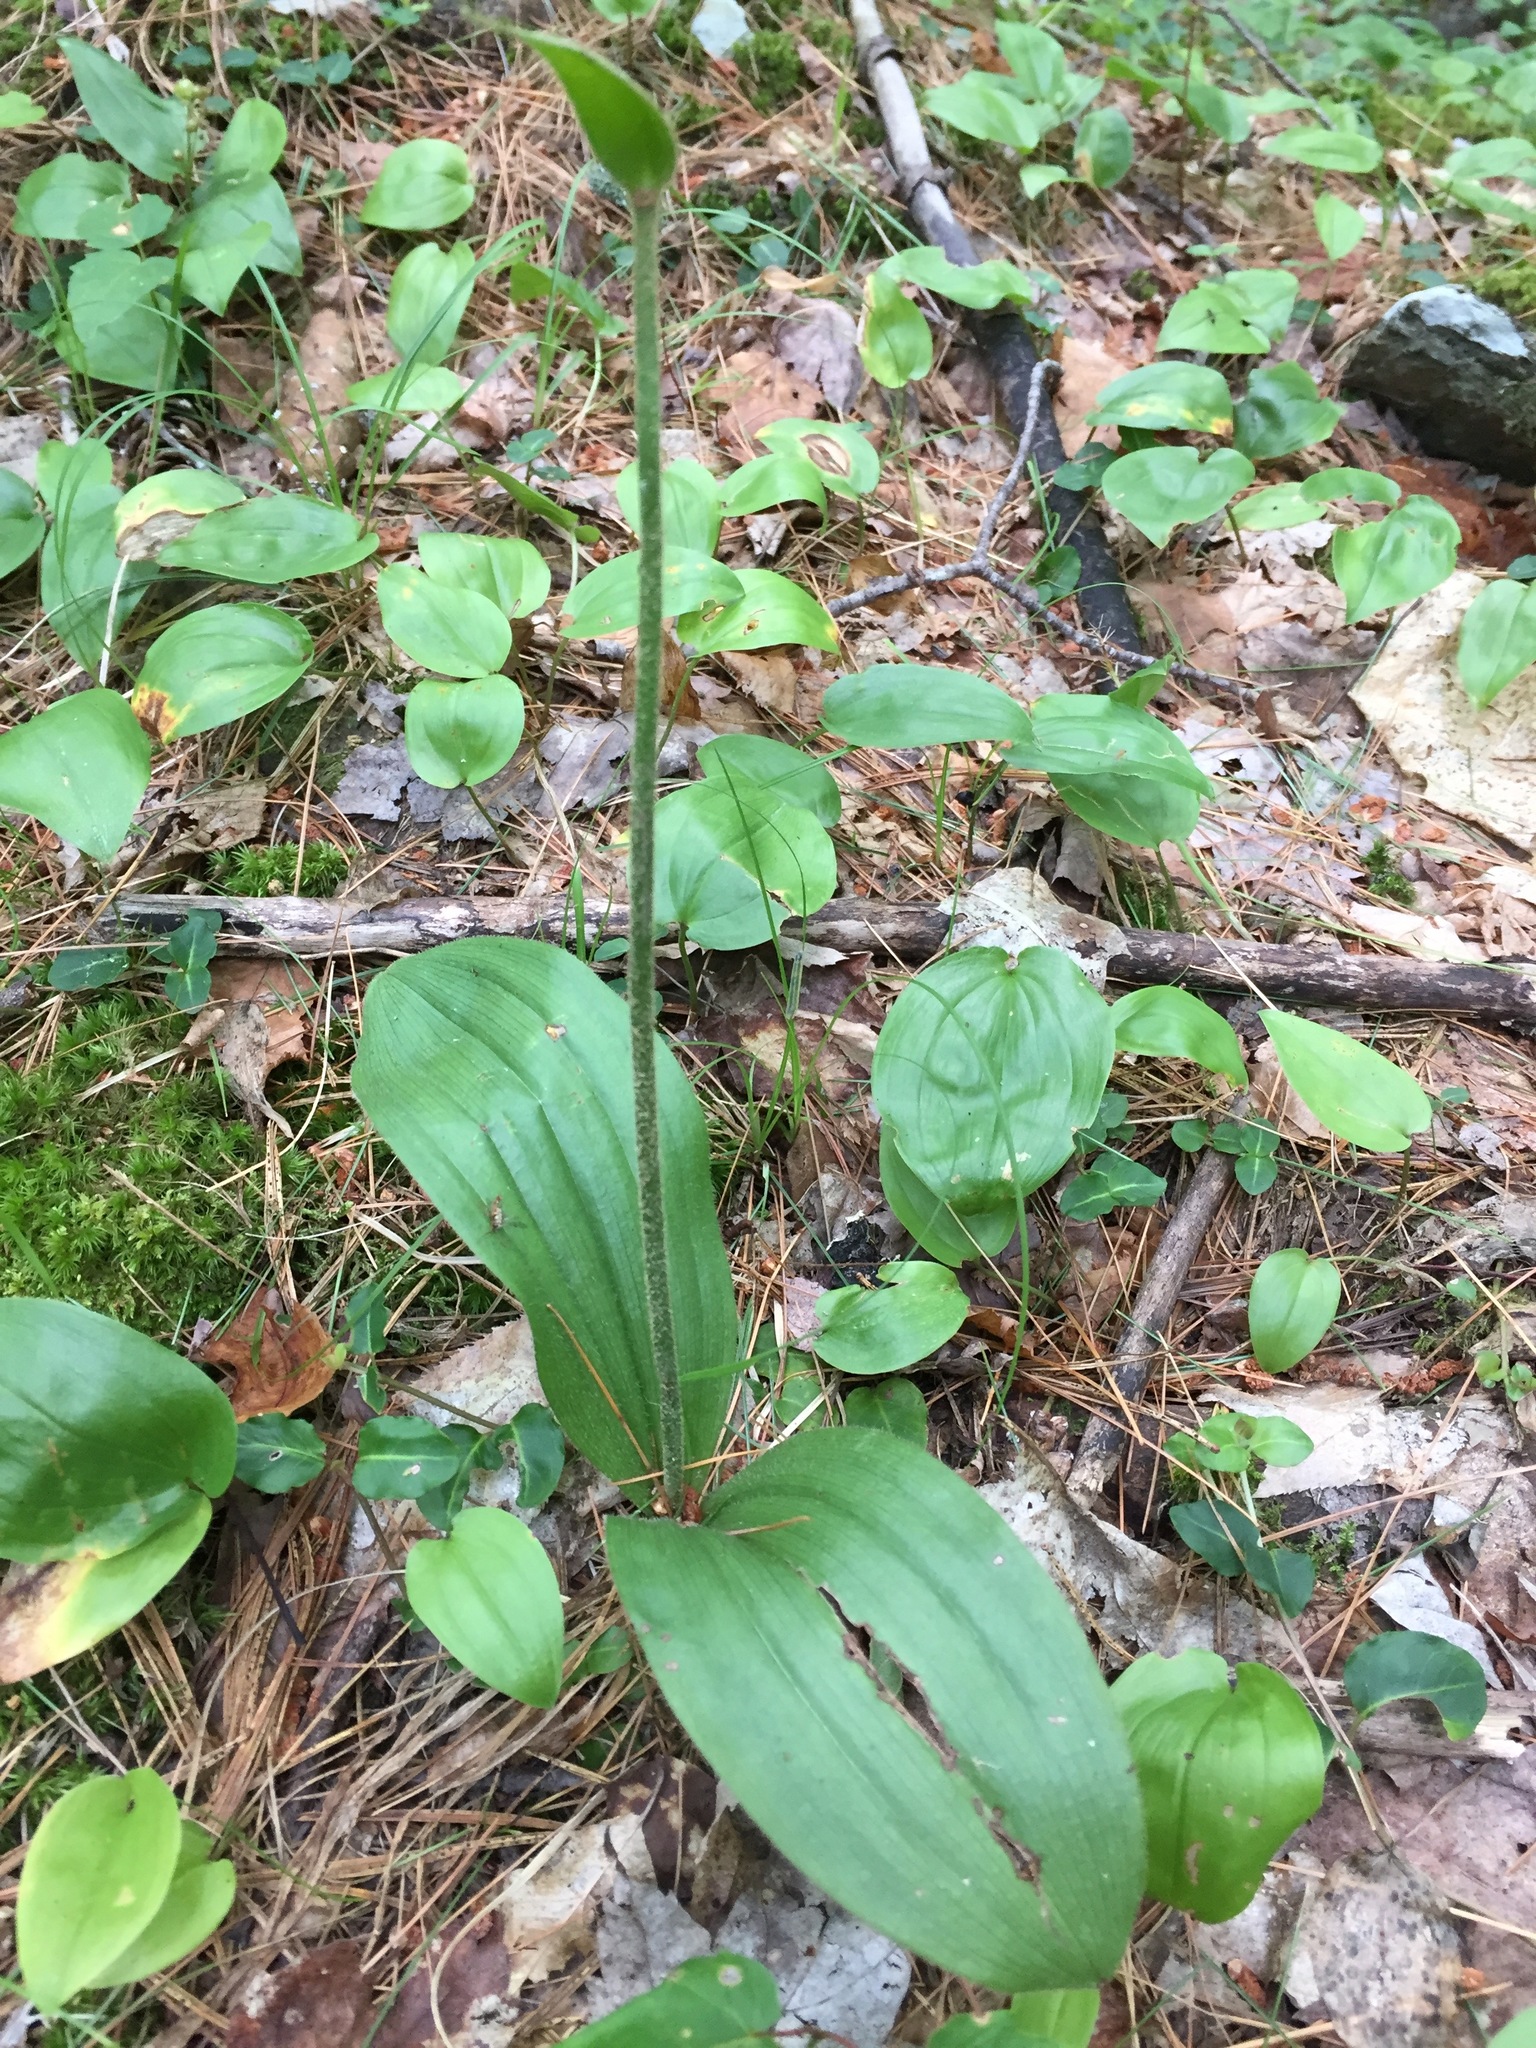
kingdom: Plantae
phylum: Tracheophyta
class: Liliopsida
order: Asparagales
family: Orchidaceae
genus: Cypripedium
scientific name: Cypripedium acaule
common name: Pink lady's-slipper
